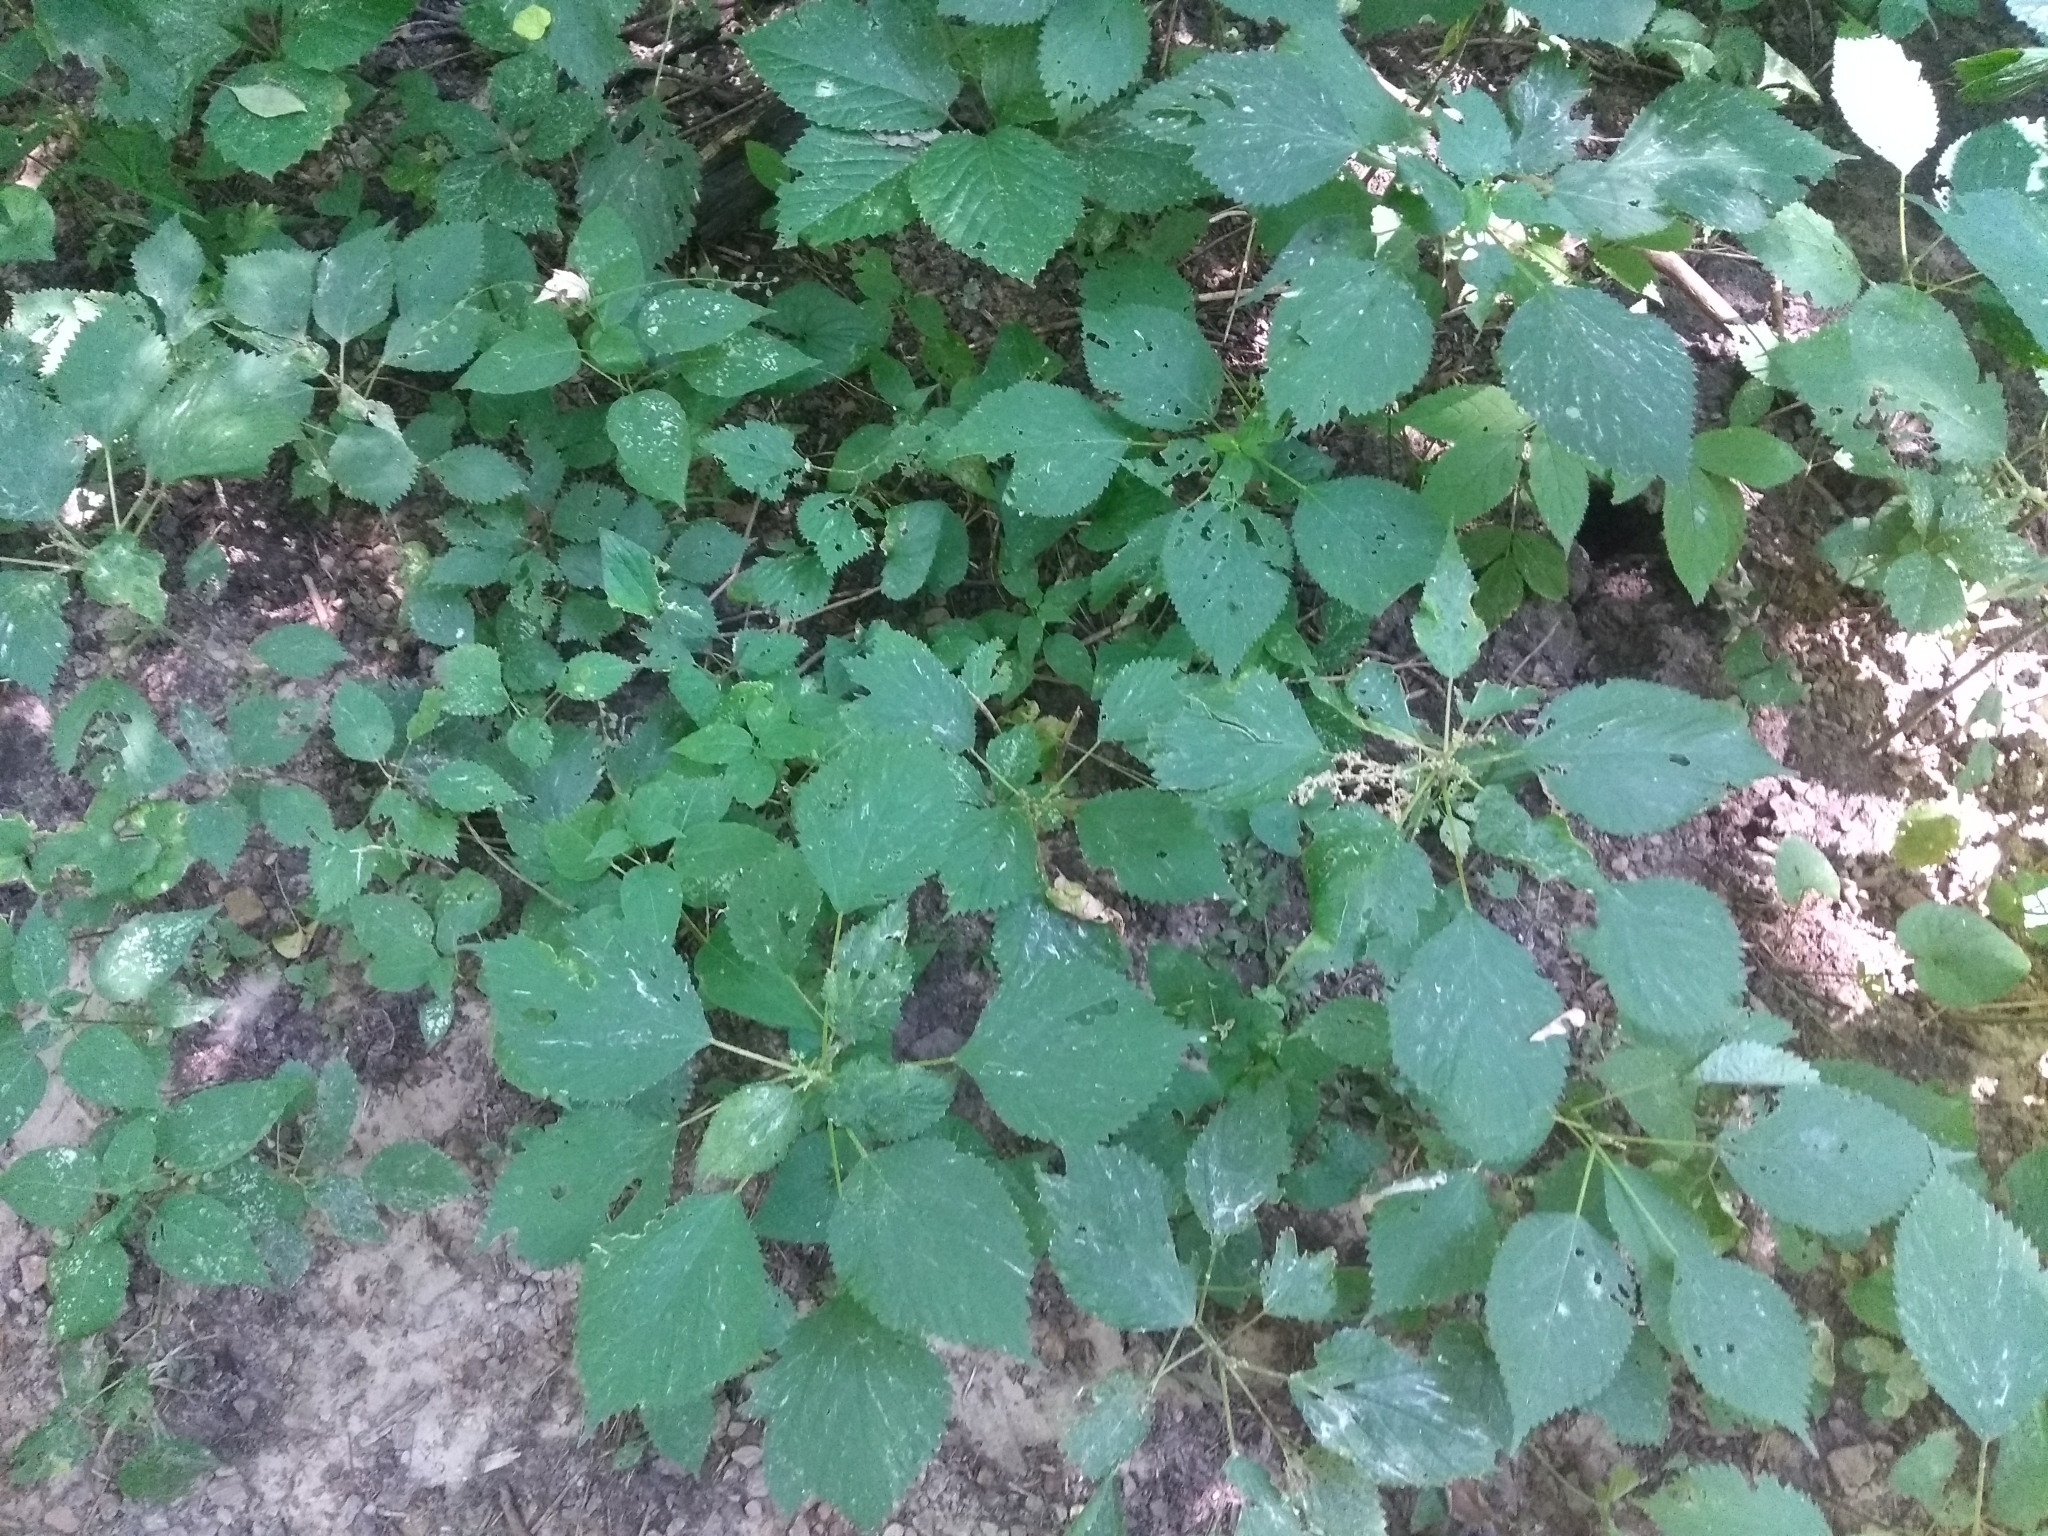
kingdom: Plantae
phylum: Tracheophyta
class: Magnoliopsida
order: Rosales
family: Urticaceae
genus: Laportea
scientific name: Laportea canadensis
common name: Canada nettle
